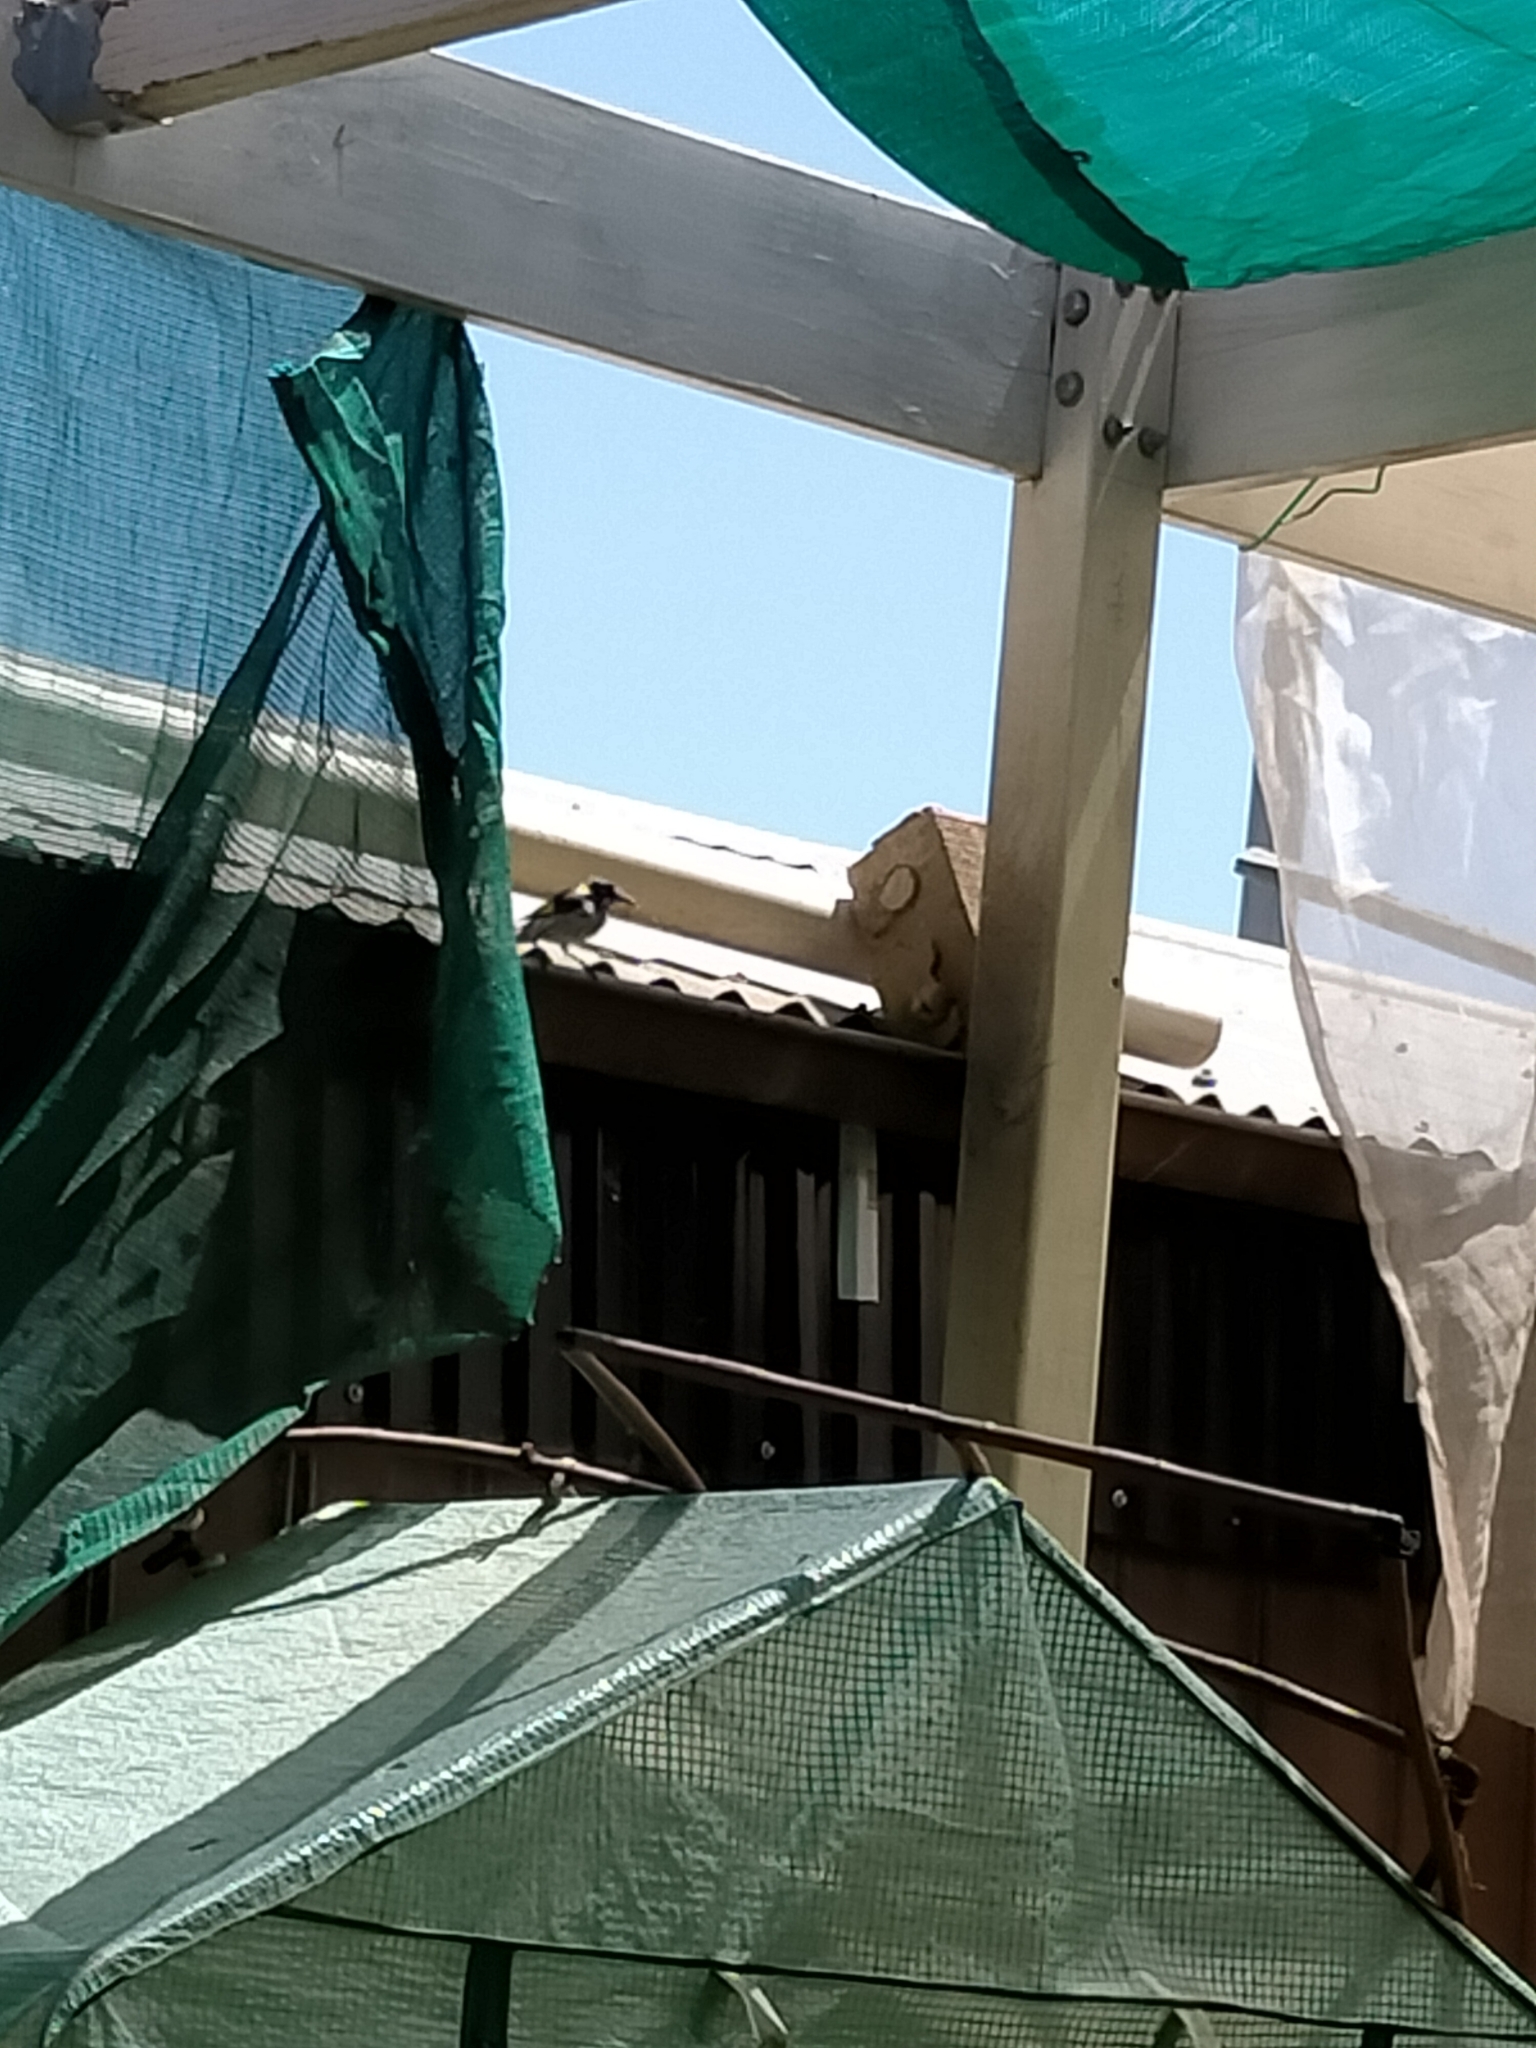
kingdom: Animalia
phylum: Chordata
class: Aves
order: Passeriformes
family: Meliphagidae
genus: Phylidonyris
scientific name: Phylidonyris novaehollandiae
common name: New holland honeyeater
